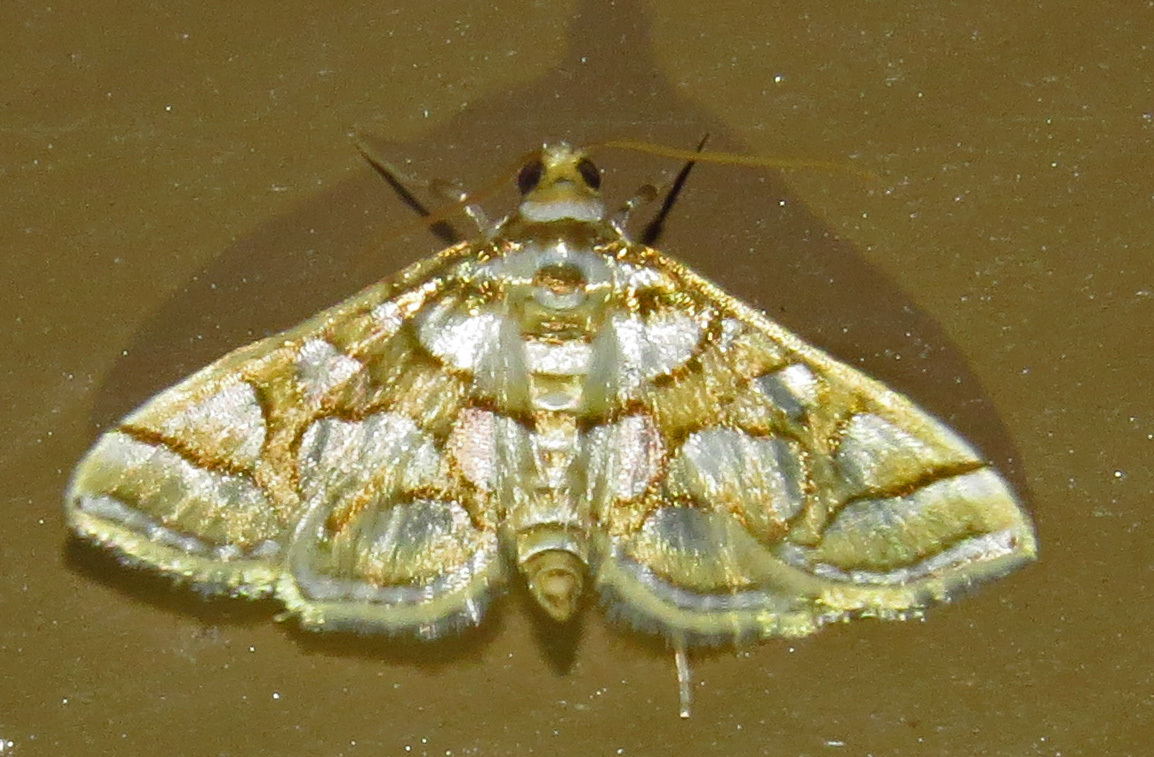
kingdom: Animalia
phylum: Arthropoda
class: Insecta
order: Lepidoptera
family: Crambidae
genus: Pseudopyrausta
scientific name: Pseudopyrausta santatalis
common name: Moth
